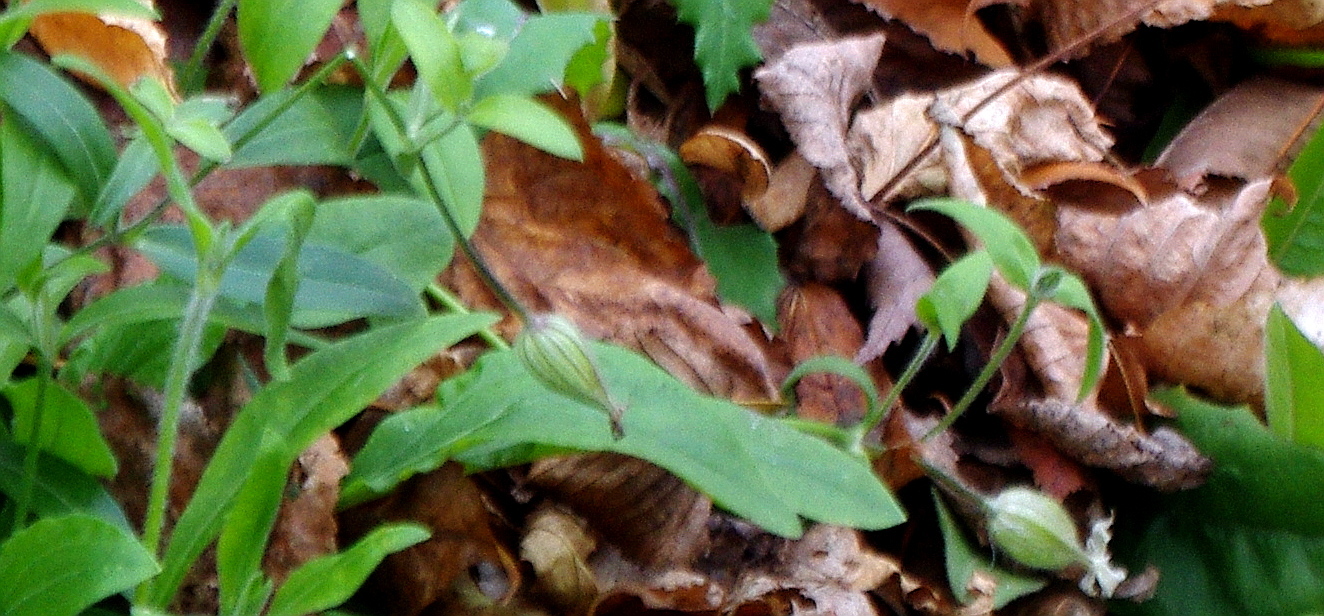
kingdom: Plantae
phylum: Tracheophyta
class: Magnoliopsida
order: Caryophyllales
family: Caryophyllaceae
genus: Silene
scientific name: Silene latifolia
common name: White campion
